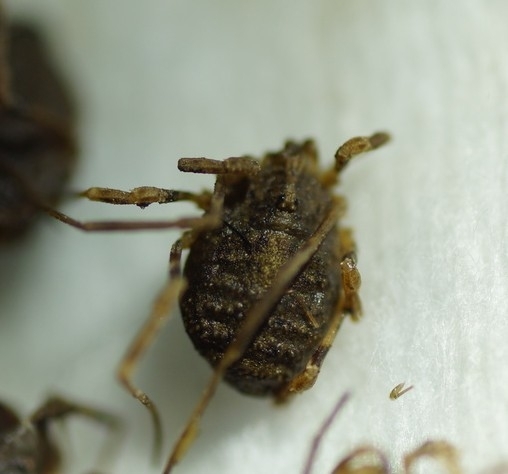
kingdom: Animalia
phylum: Arthropoda
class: Arachnida
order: Opiliones
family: Phalangiidae
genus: Odiellus
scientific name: Odiellus lendlii
